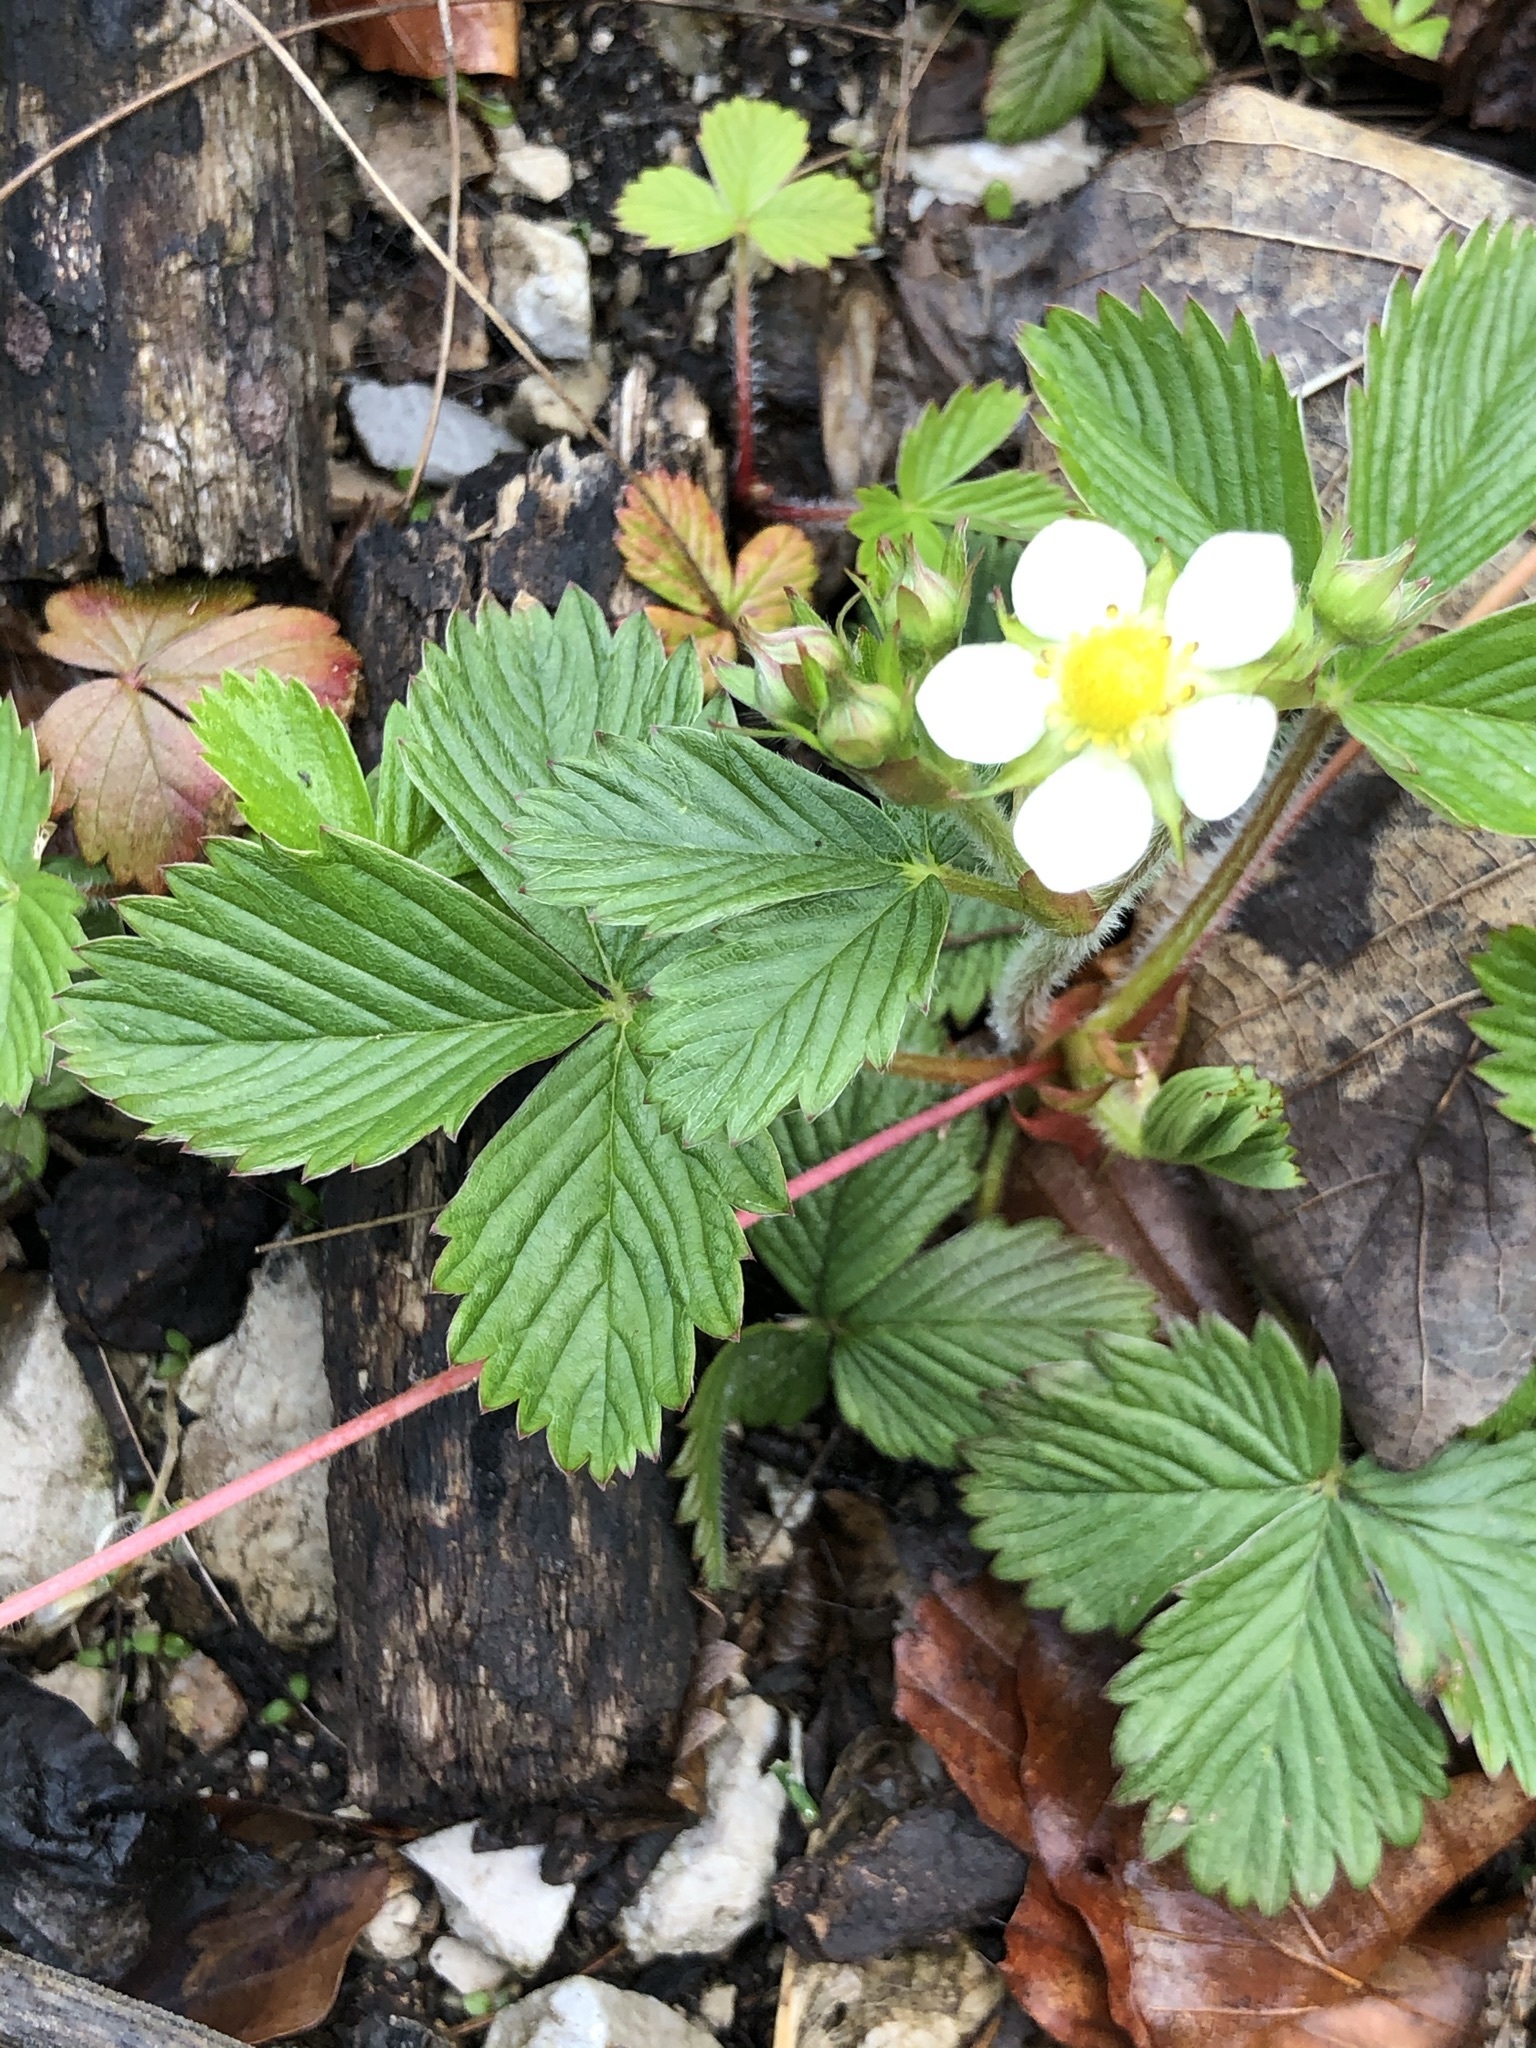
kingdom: Plantae
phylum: Tracheophyta
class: Magnoliopsida
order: Rosales
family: Rosaceae
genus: Fragaria
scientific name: Fragaria vesca
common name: Wild strawberry
